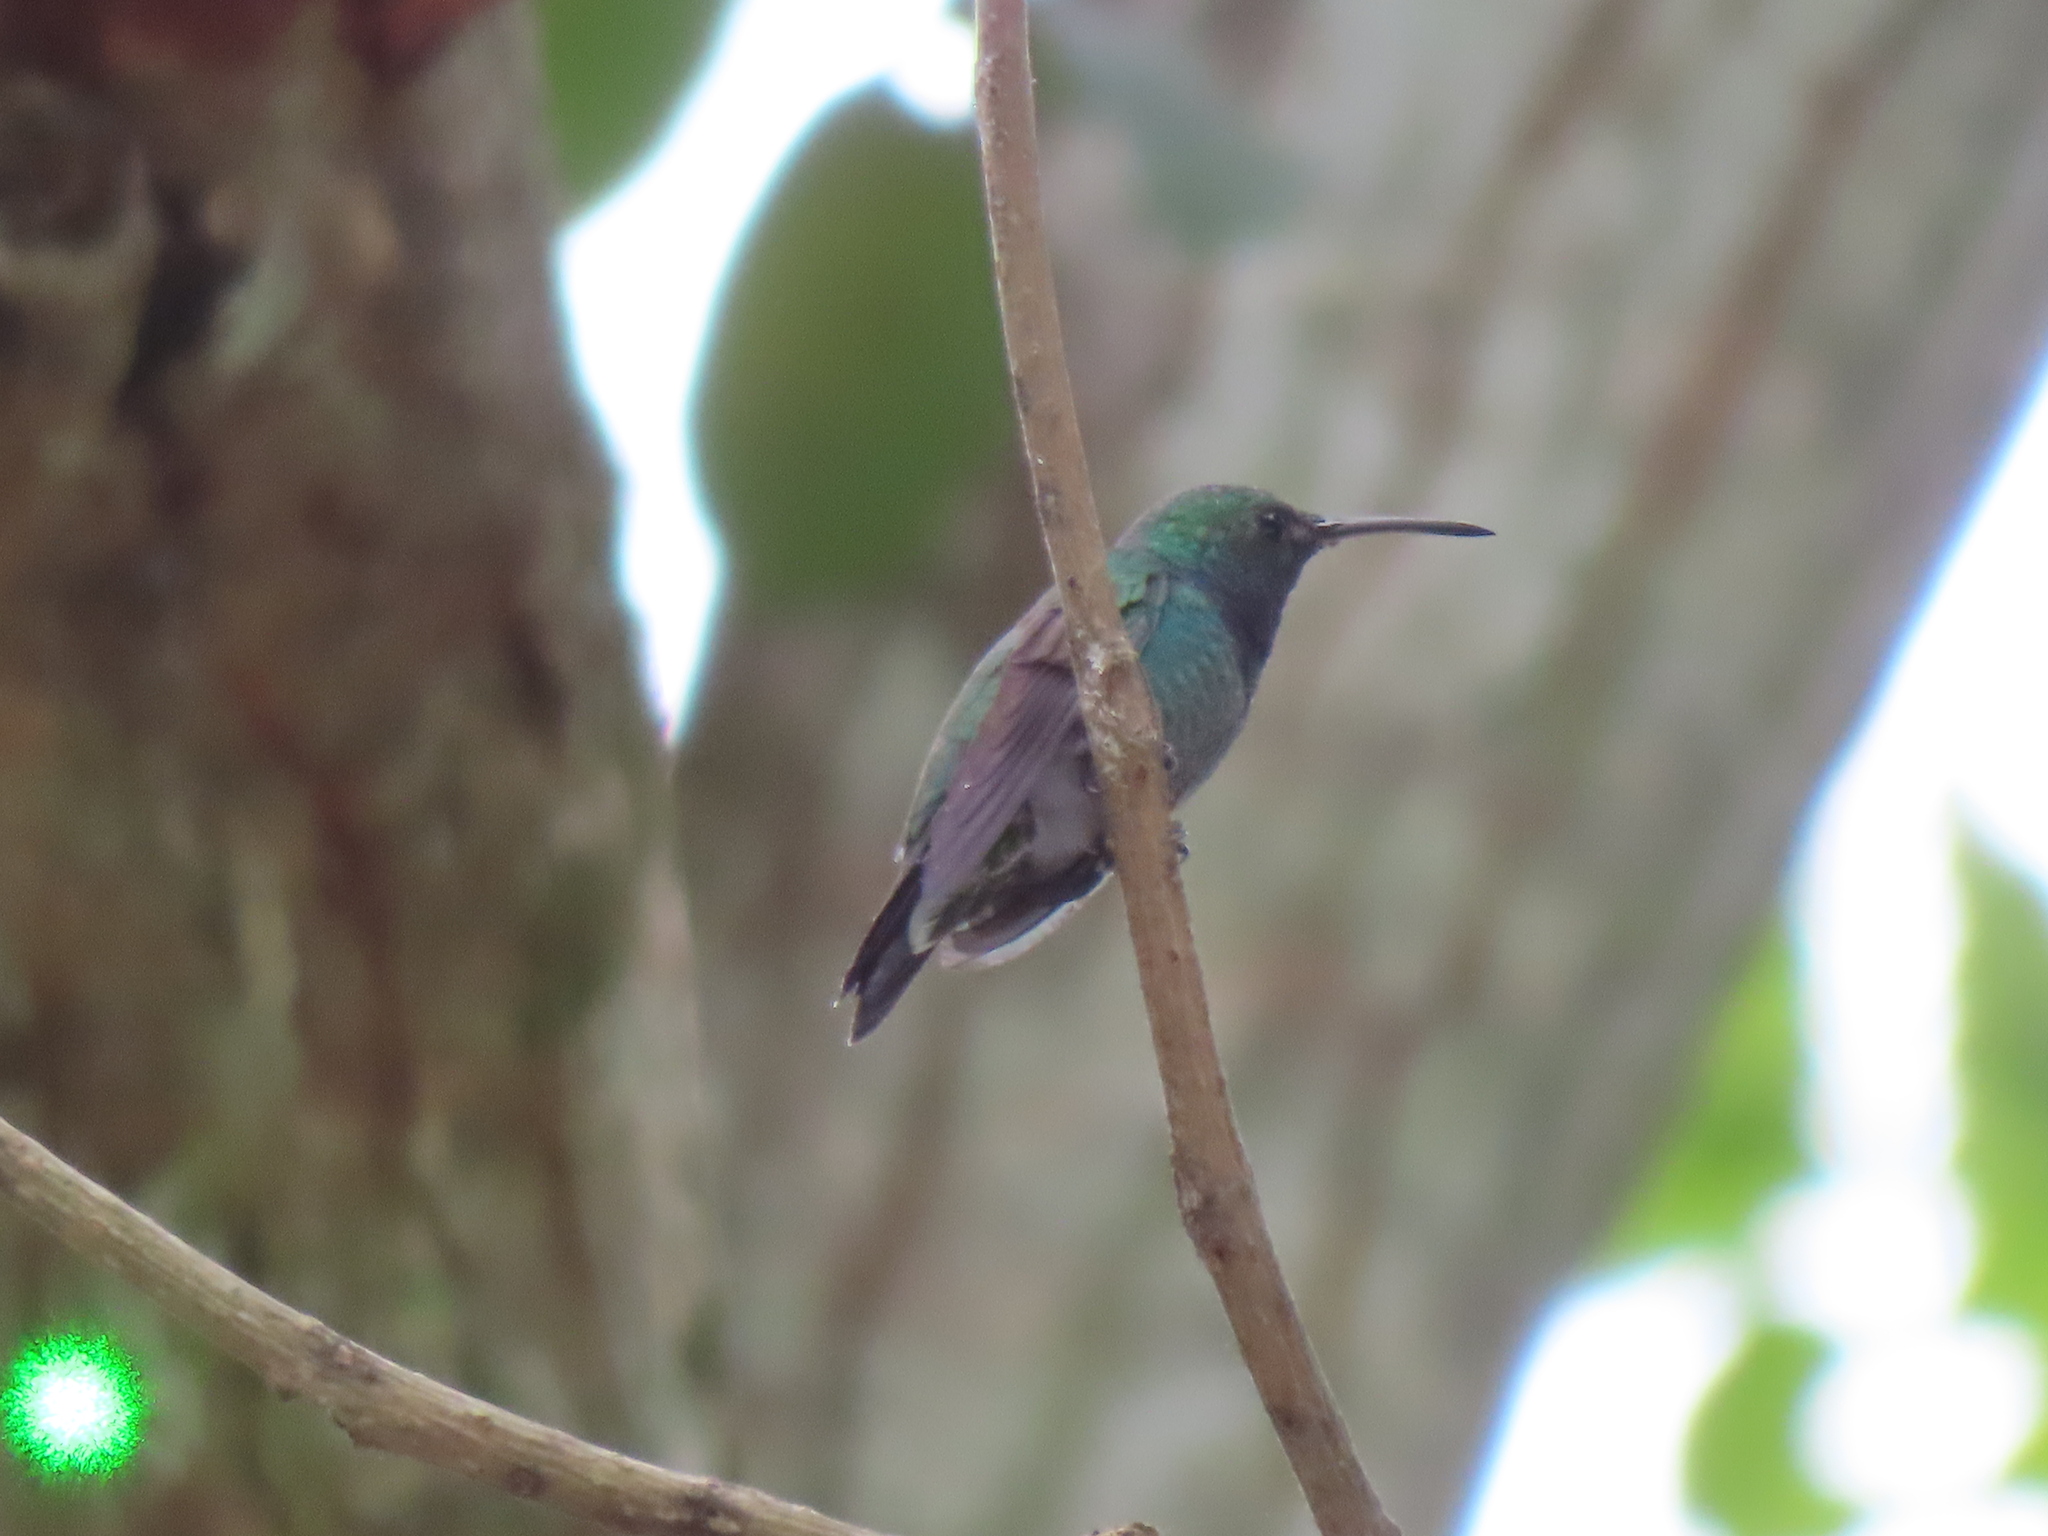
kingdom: Animalia
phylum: Chordata
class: Aves
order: Apodiformes
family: Trochilidae
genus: Chrysuronia
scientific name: Chrysuronia coeruleogularis
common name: Sapphire-throated hummingbird
